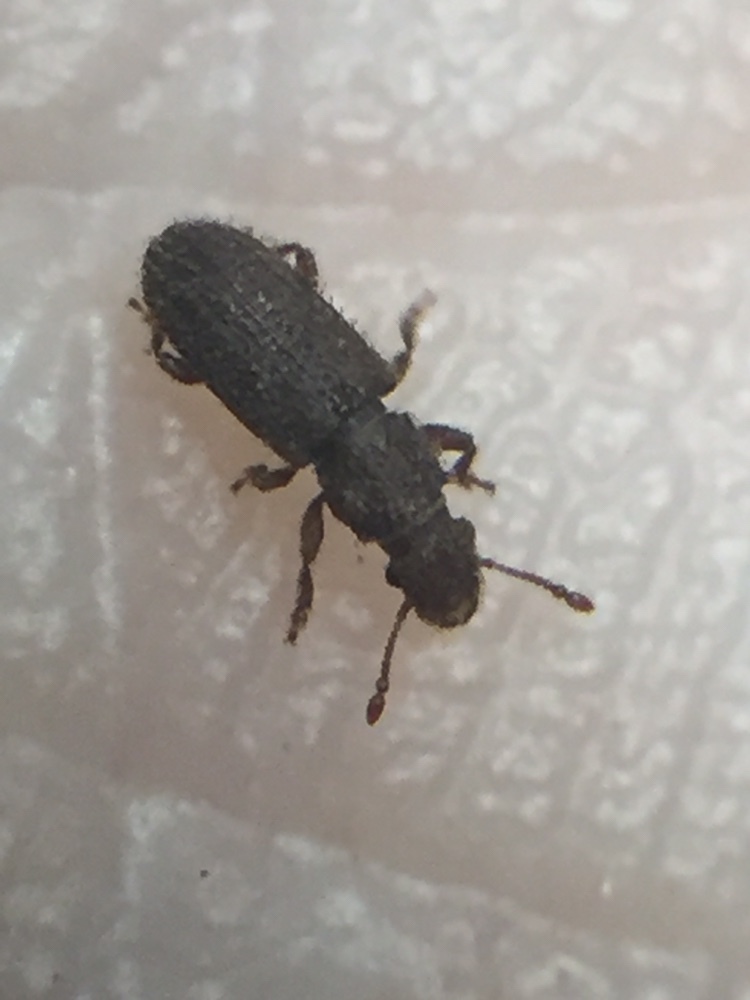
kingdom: Animalia
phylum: Arthropoda
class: Insecta
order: Coleoptera
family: Belidae
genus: Aralius
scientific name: Aralius wollastoni
